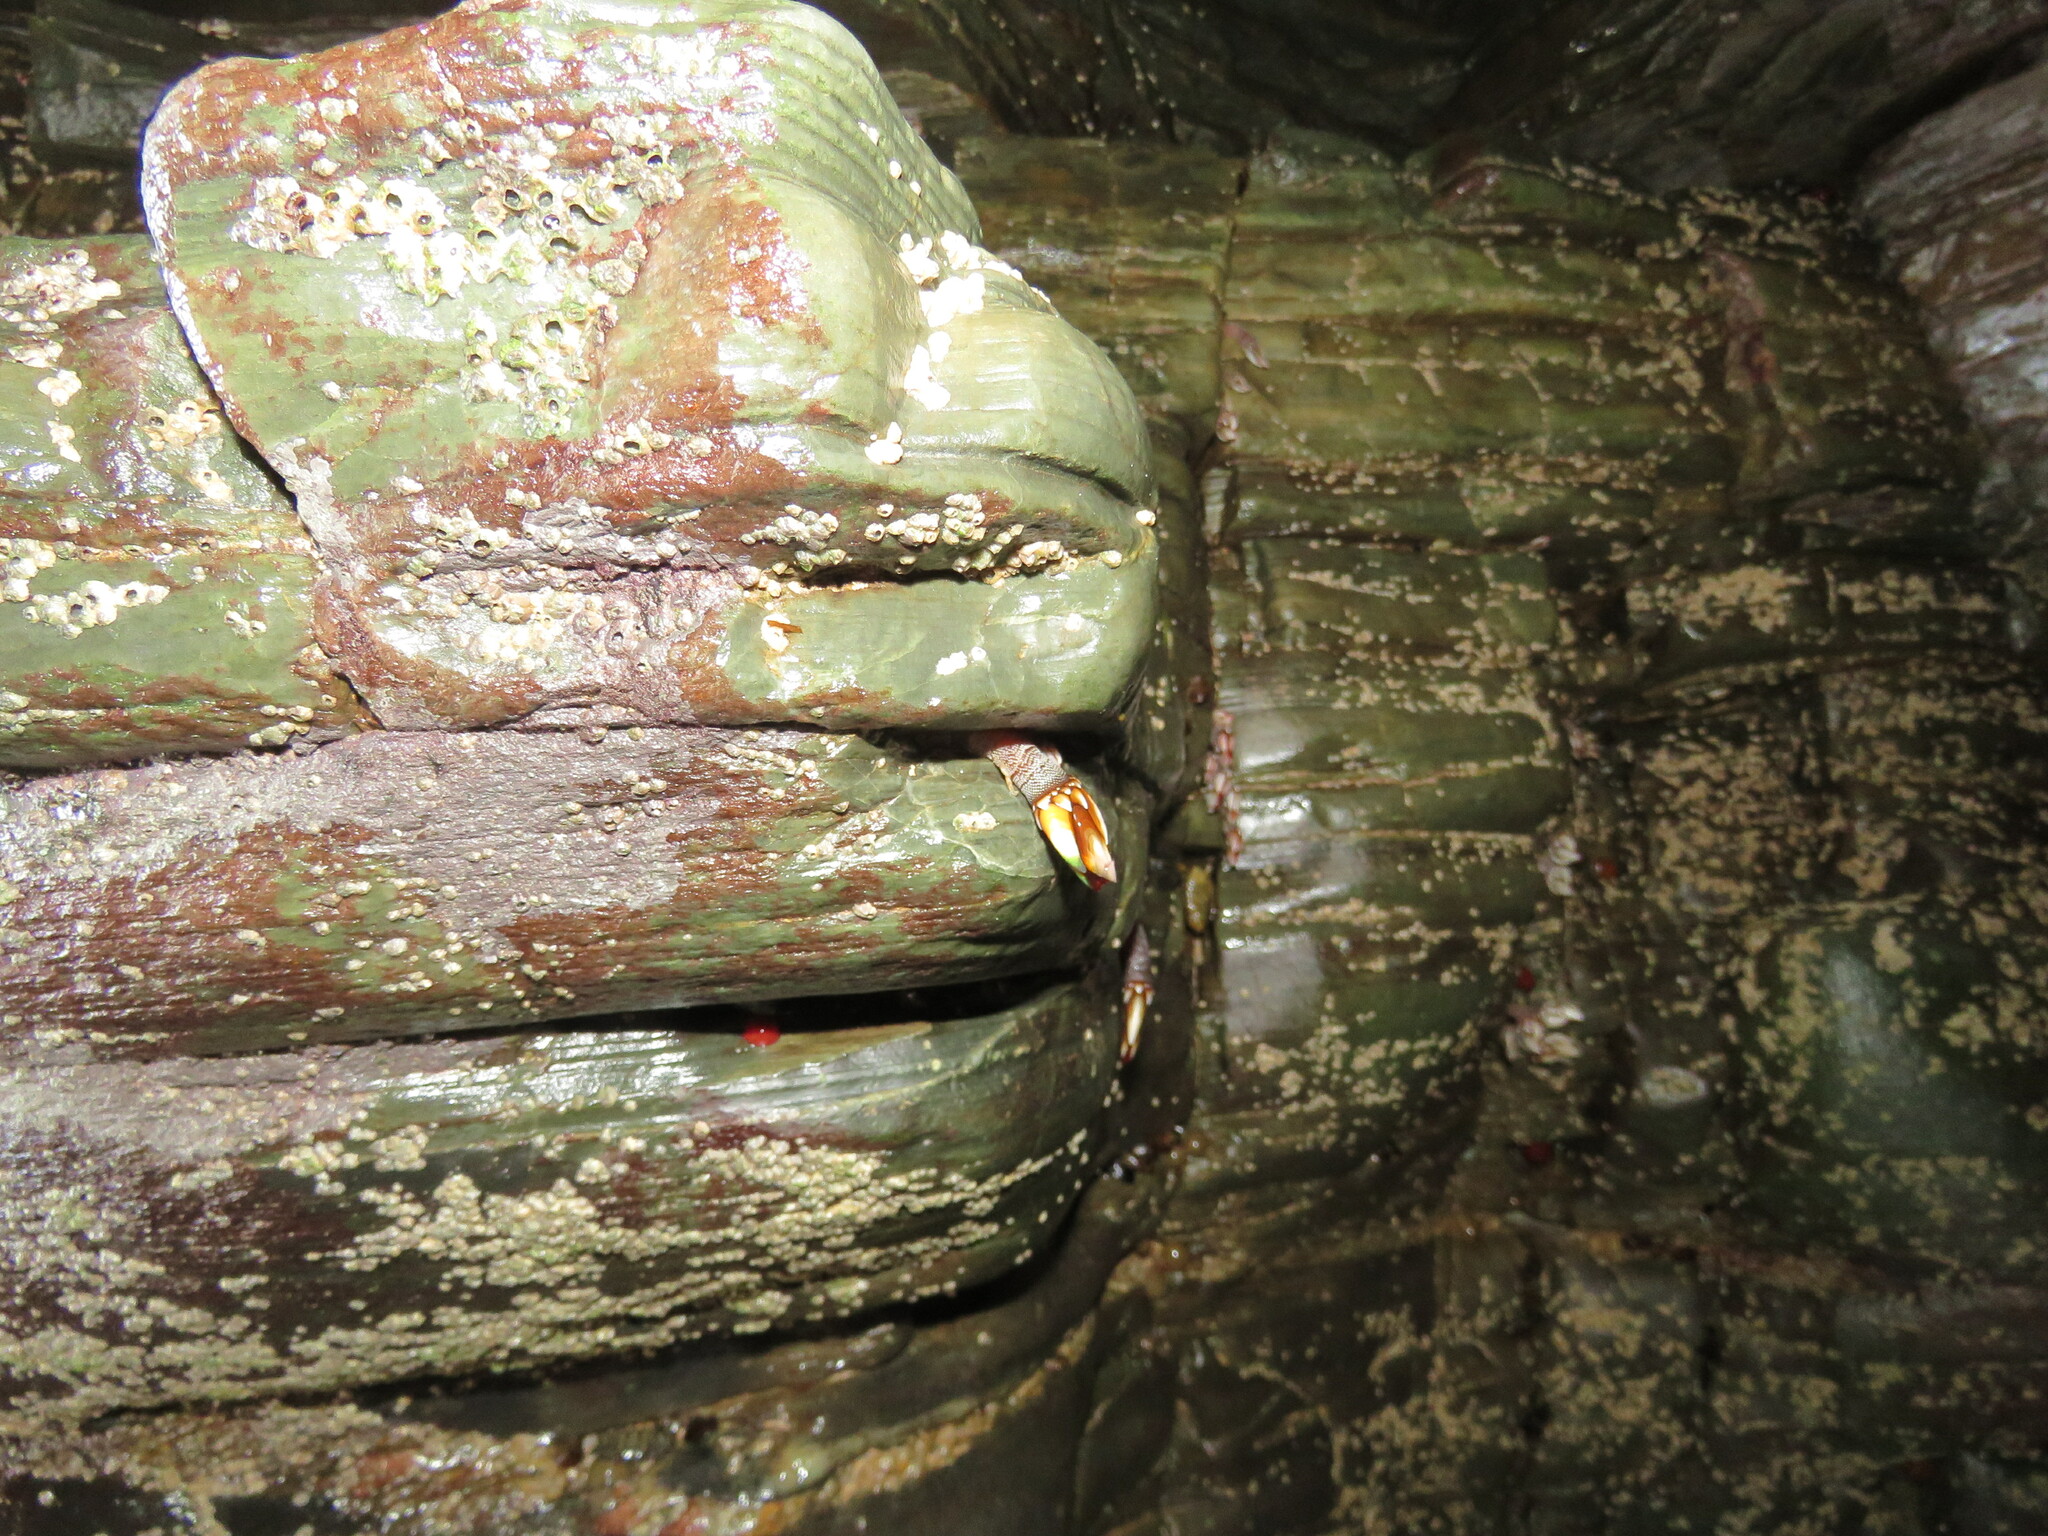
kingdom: Animalia
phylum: Arthropoda
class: Maxillopoda
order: Pedunculata
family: Pollicipedidae
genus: Pollicipes
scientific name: Pollicipes pollicipes
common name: Gooseneck barnacle
